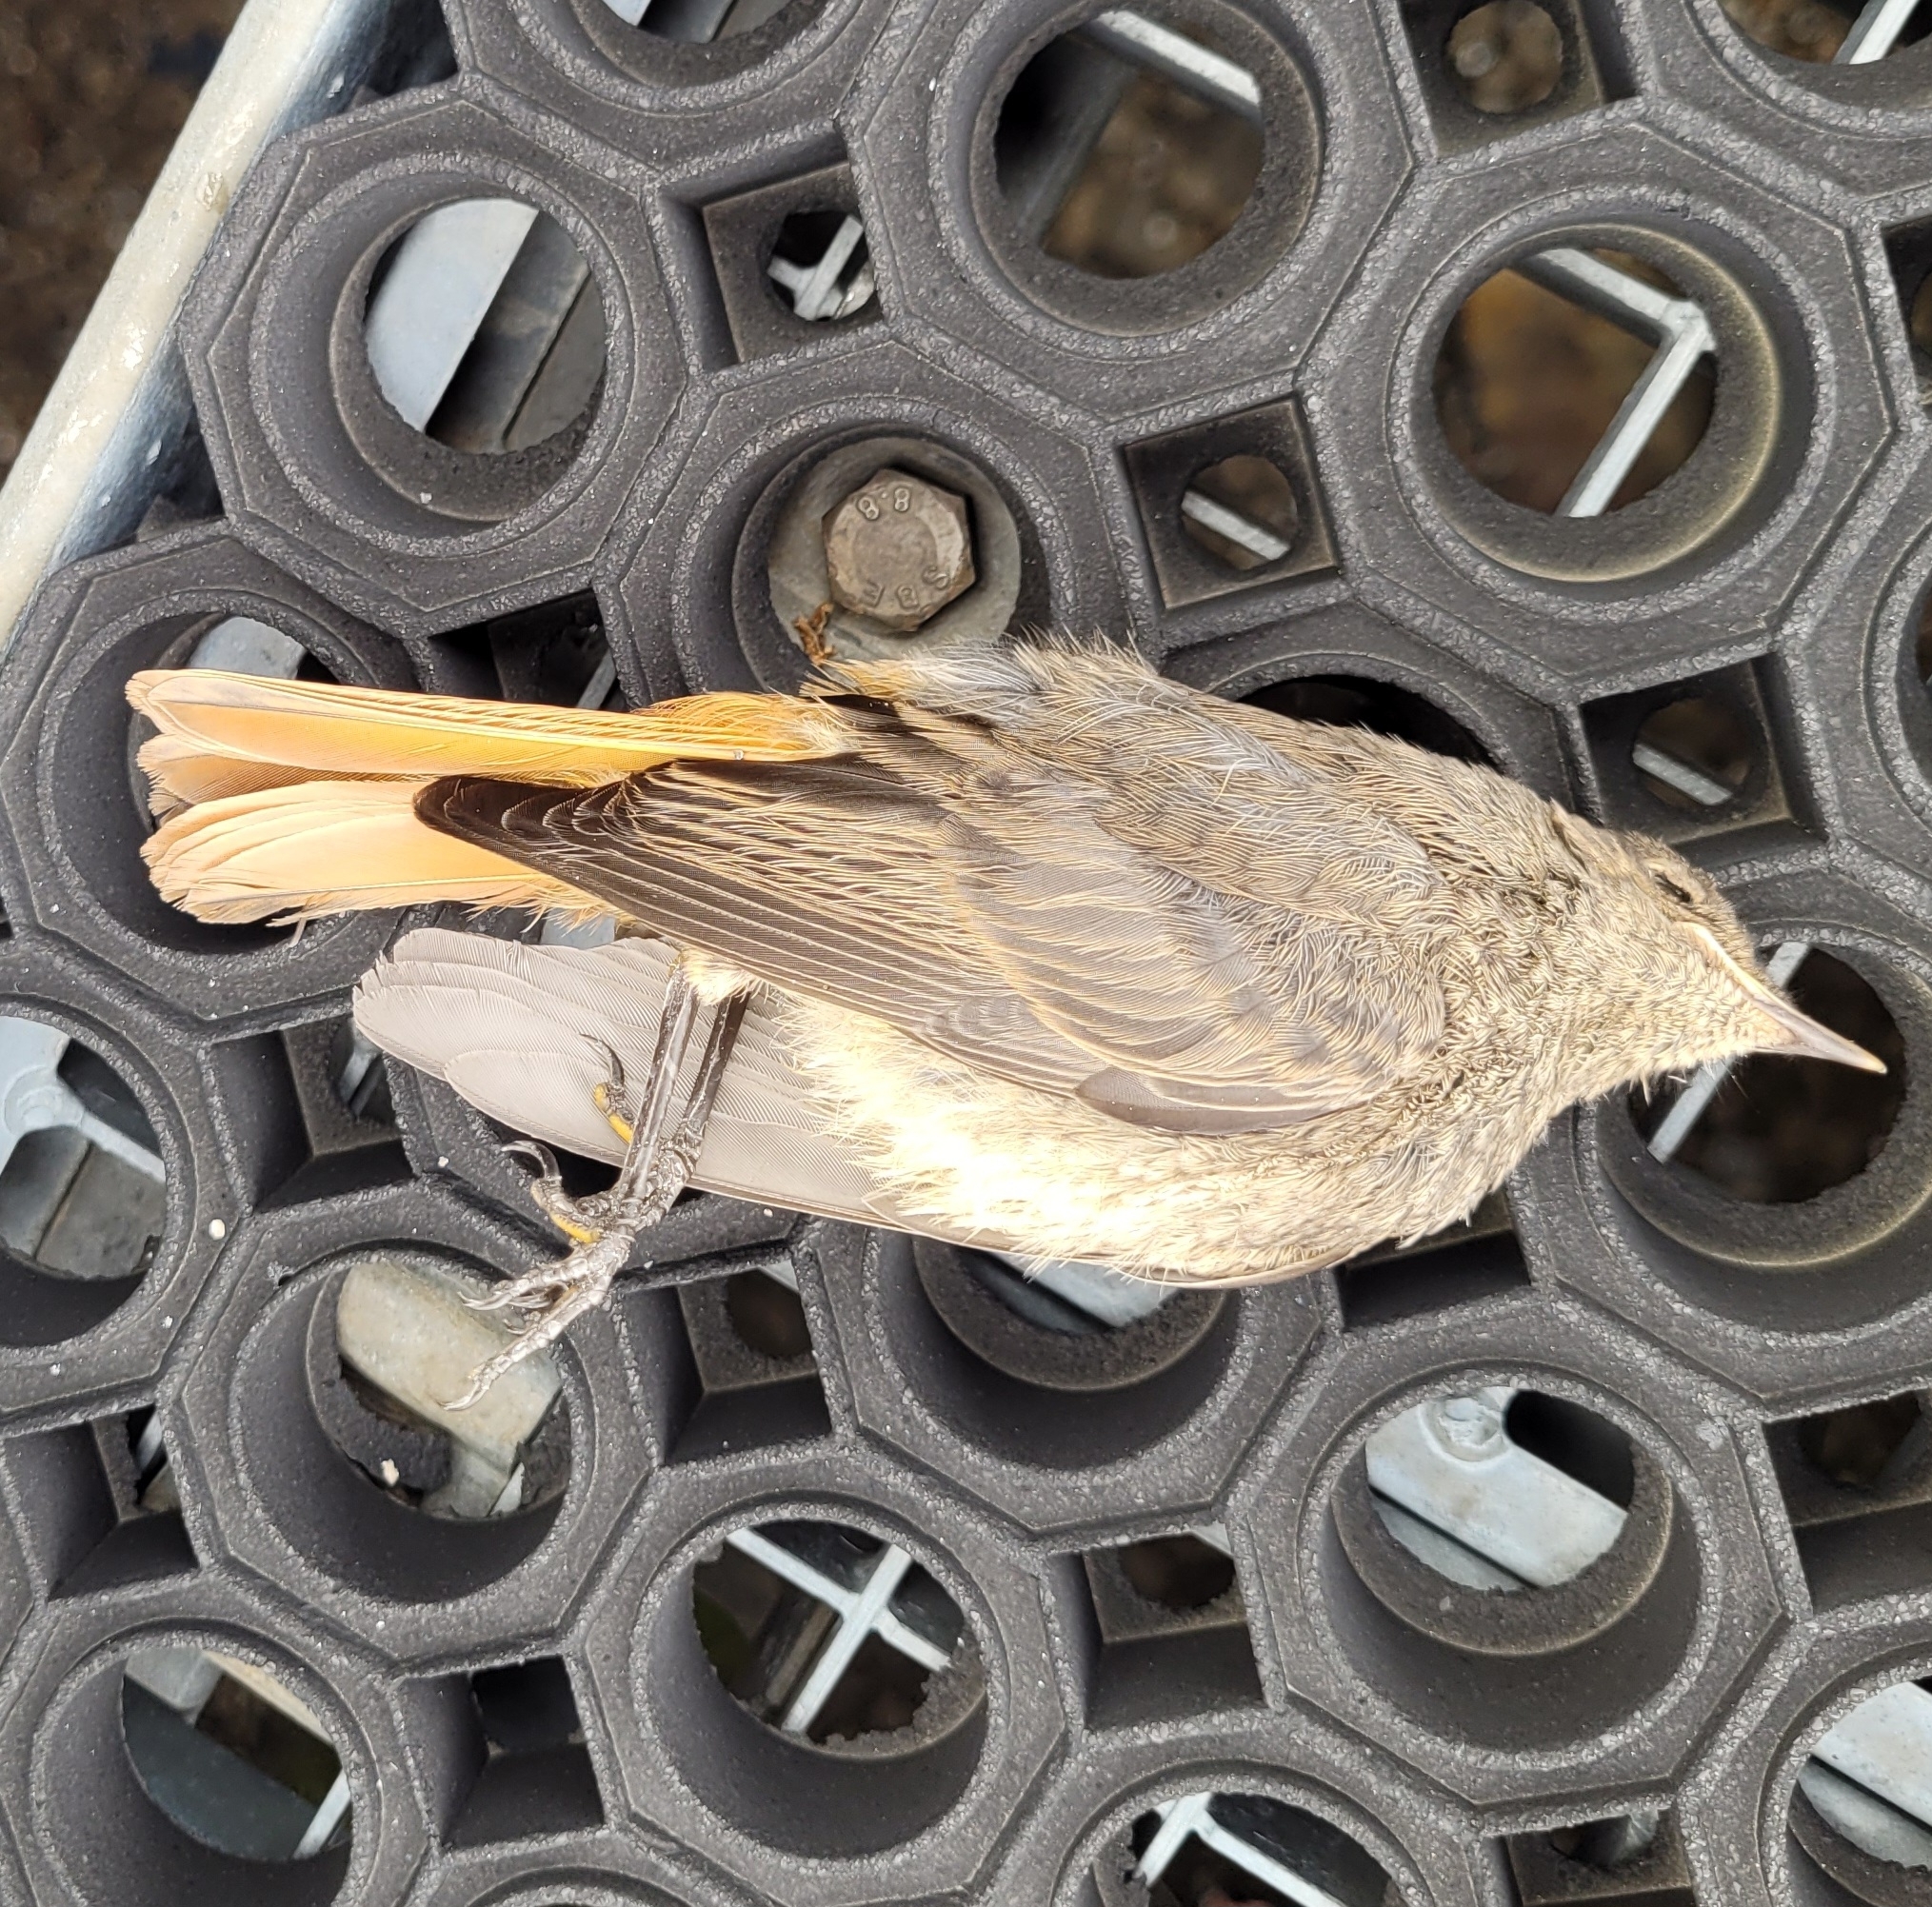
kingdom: Animalia
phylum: Chordata
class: Aves
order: Passeriformes
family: Muscicapidae
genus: Phoenicurus
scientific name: Phoenicurus ochruros
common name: Black redstart
